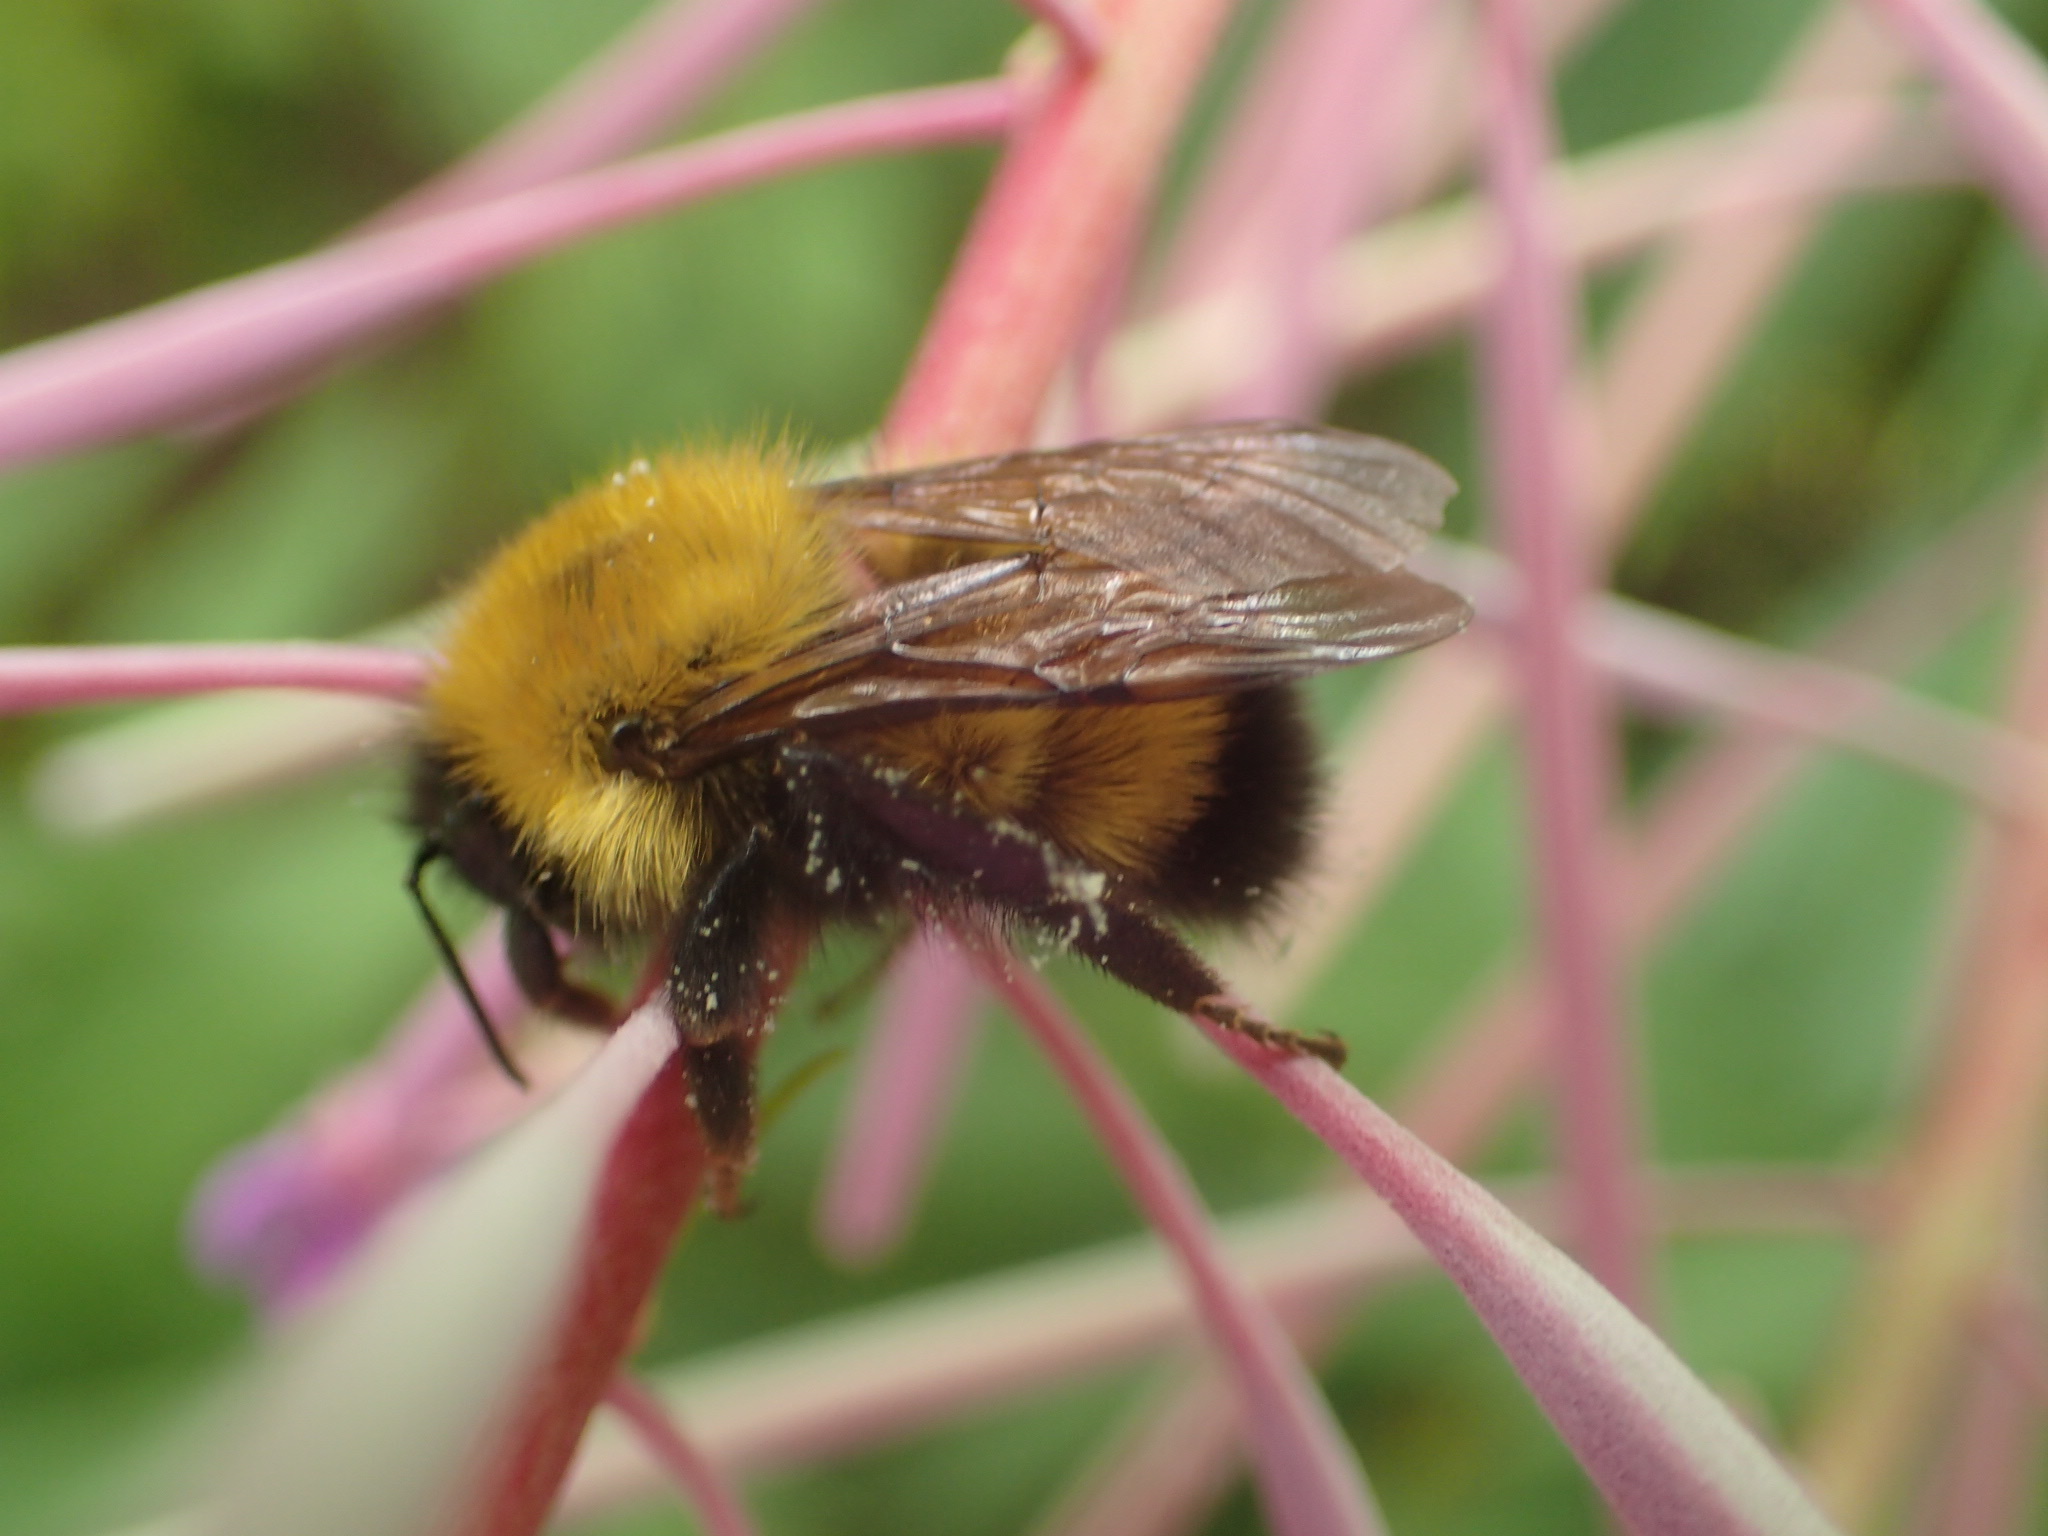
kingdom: Animalia
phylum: Arthropoda
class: Insecta
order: Hymenoptera
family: Apidae
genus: Bombus
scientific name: Bombus perplexus
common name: Confusing bumble bee
